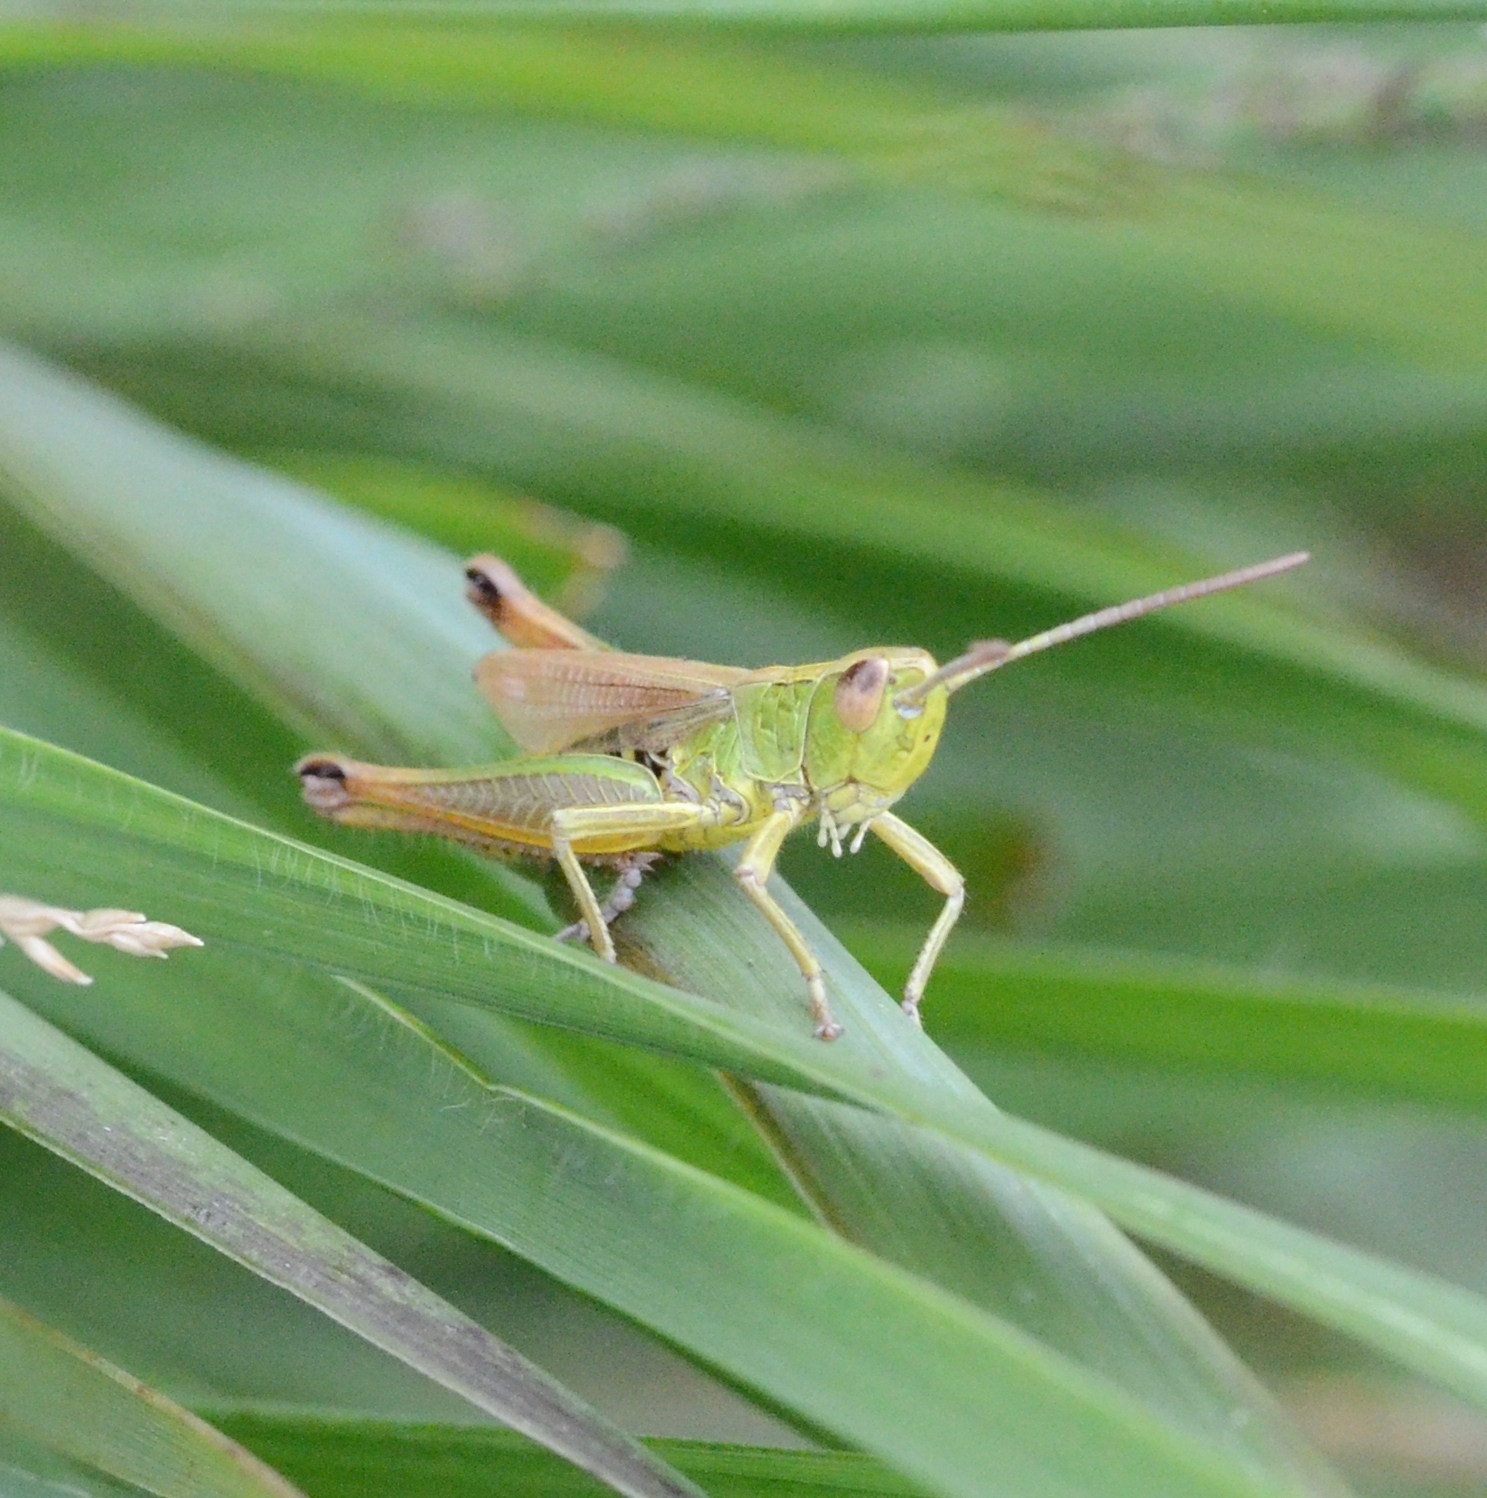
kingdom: Animalia
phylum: Arthropoda
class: Insecta
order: Orthoptera
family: Acrididae
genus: Pseudochorthippus
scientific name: Pseudochorthippus parallelus
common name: Meadow grasshopper
